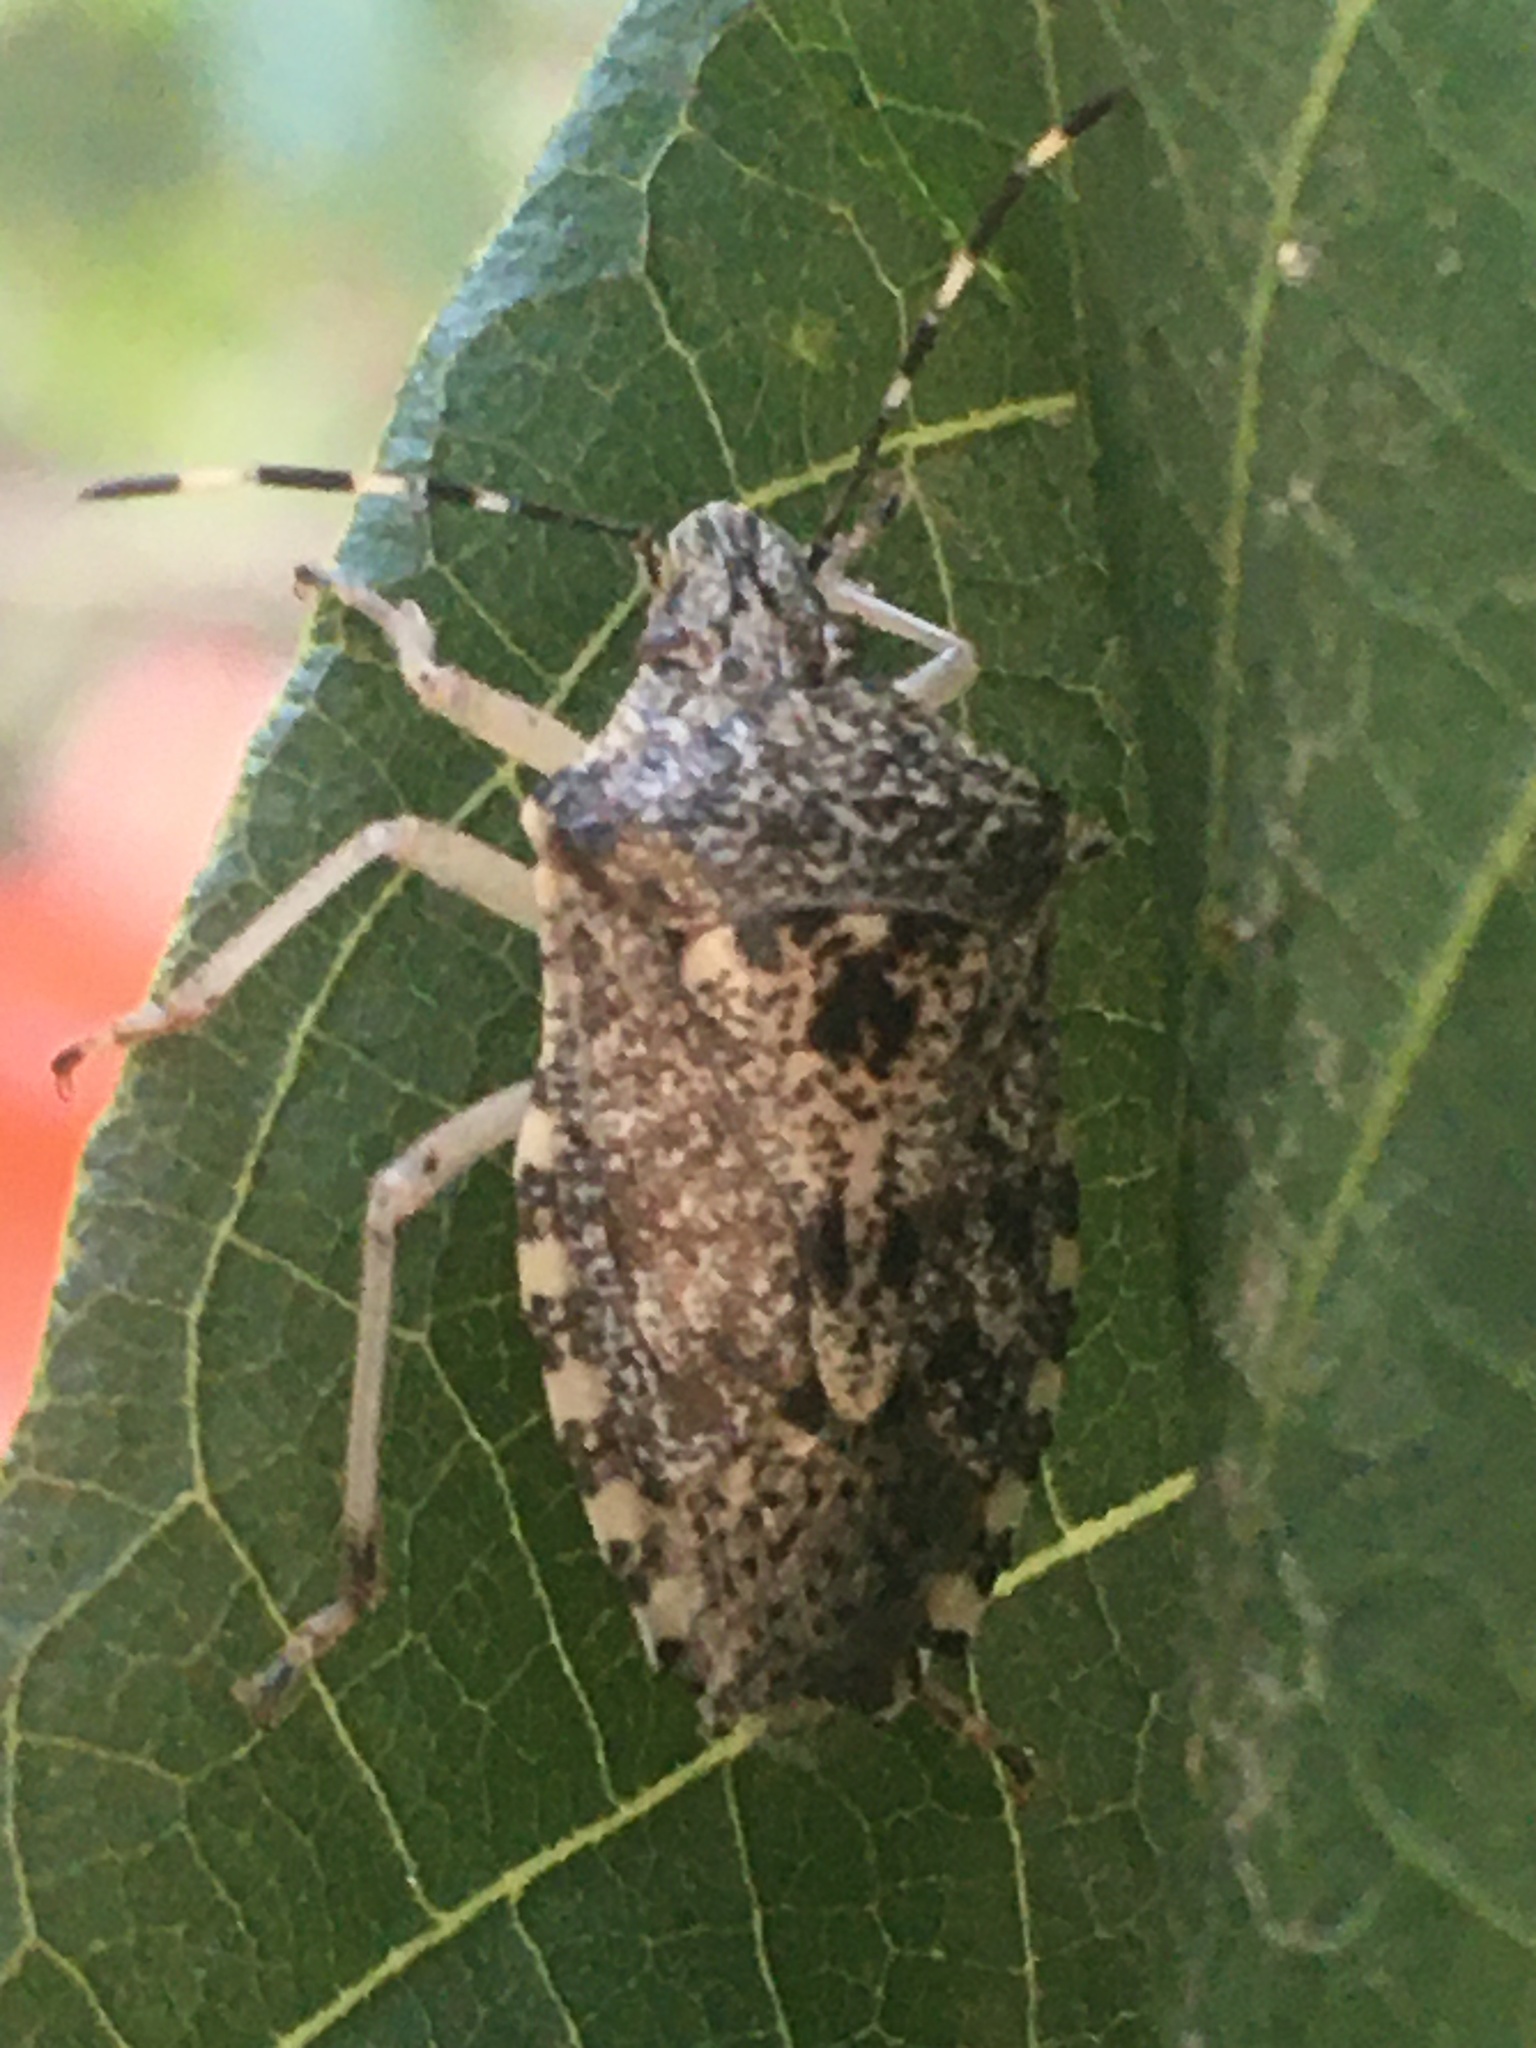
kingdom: Animalia
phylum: Arthropoda
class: Insecta
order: Hemiptera
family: Pentatomidae
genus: Rhaphigaster
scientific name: Rhaphigaster nebulosa
